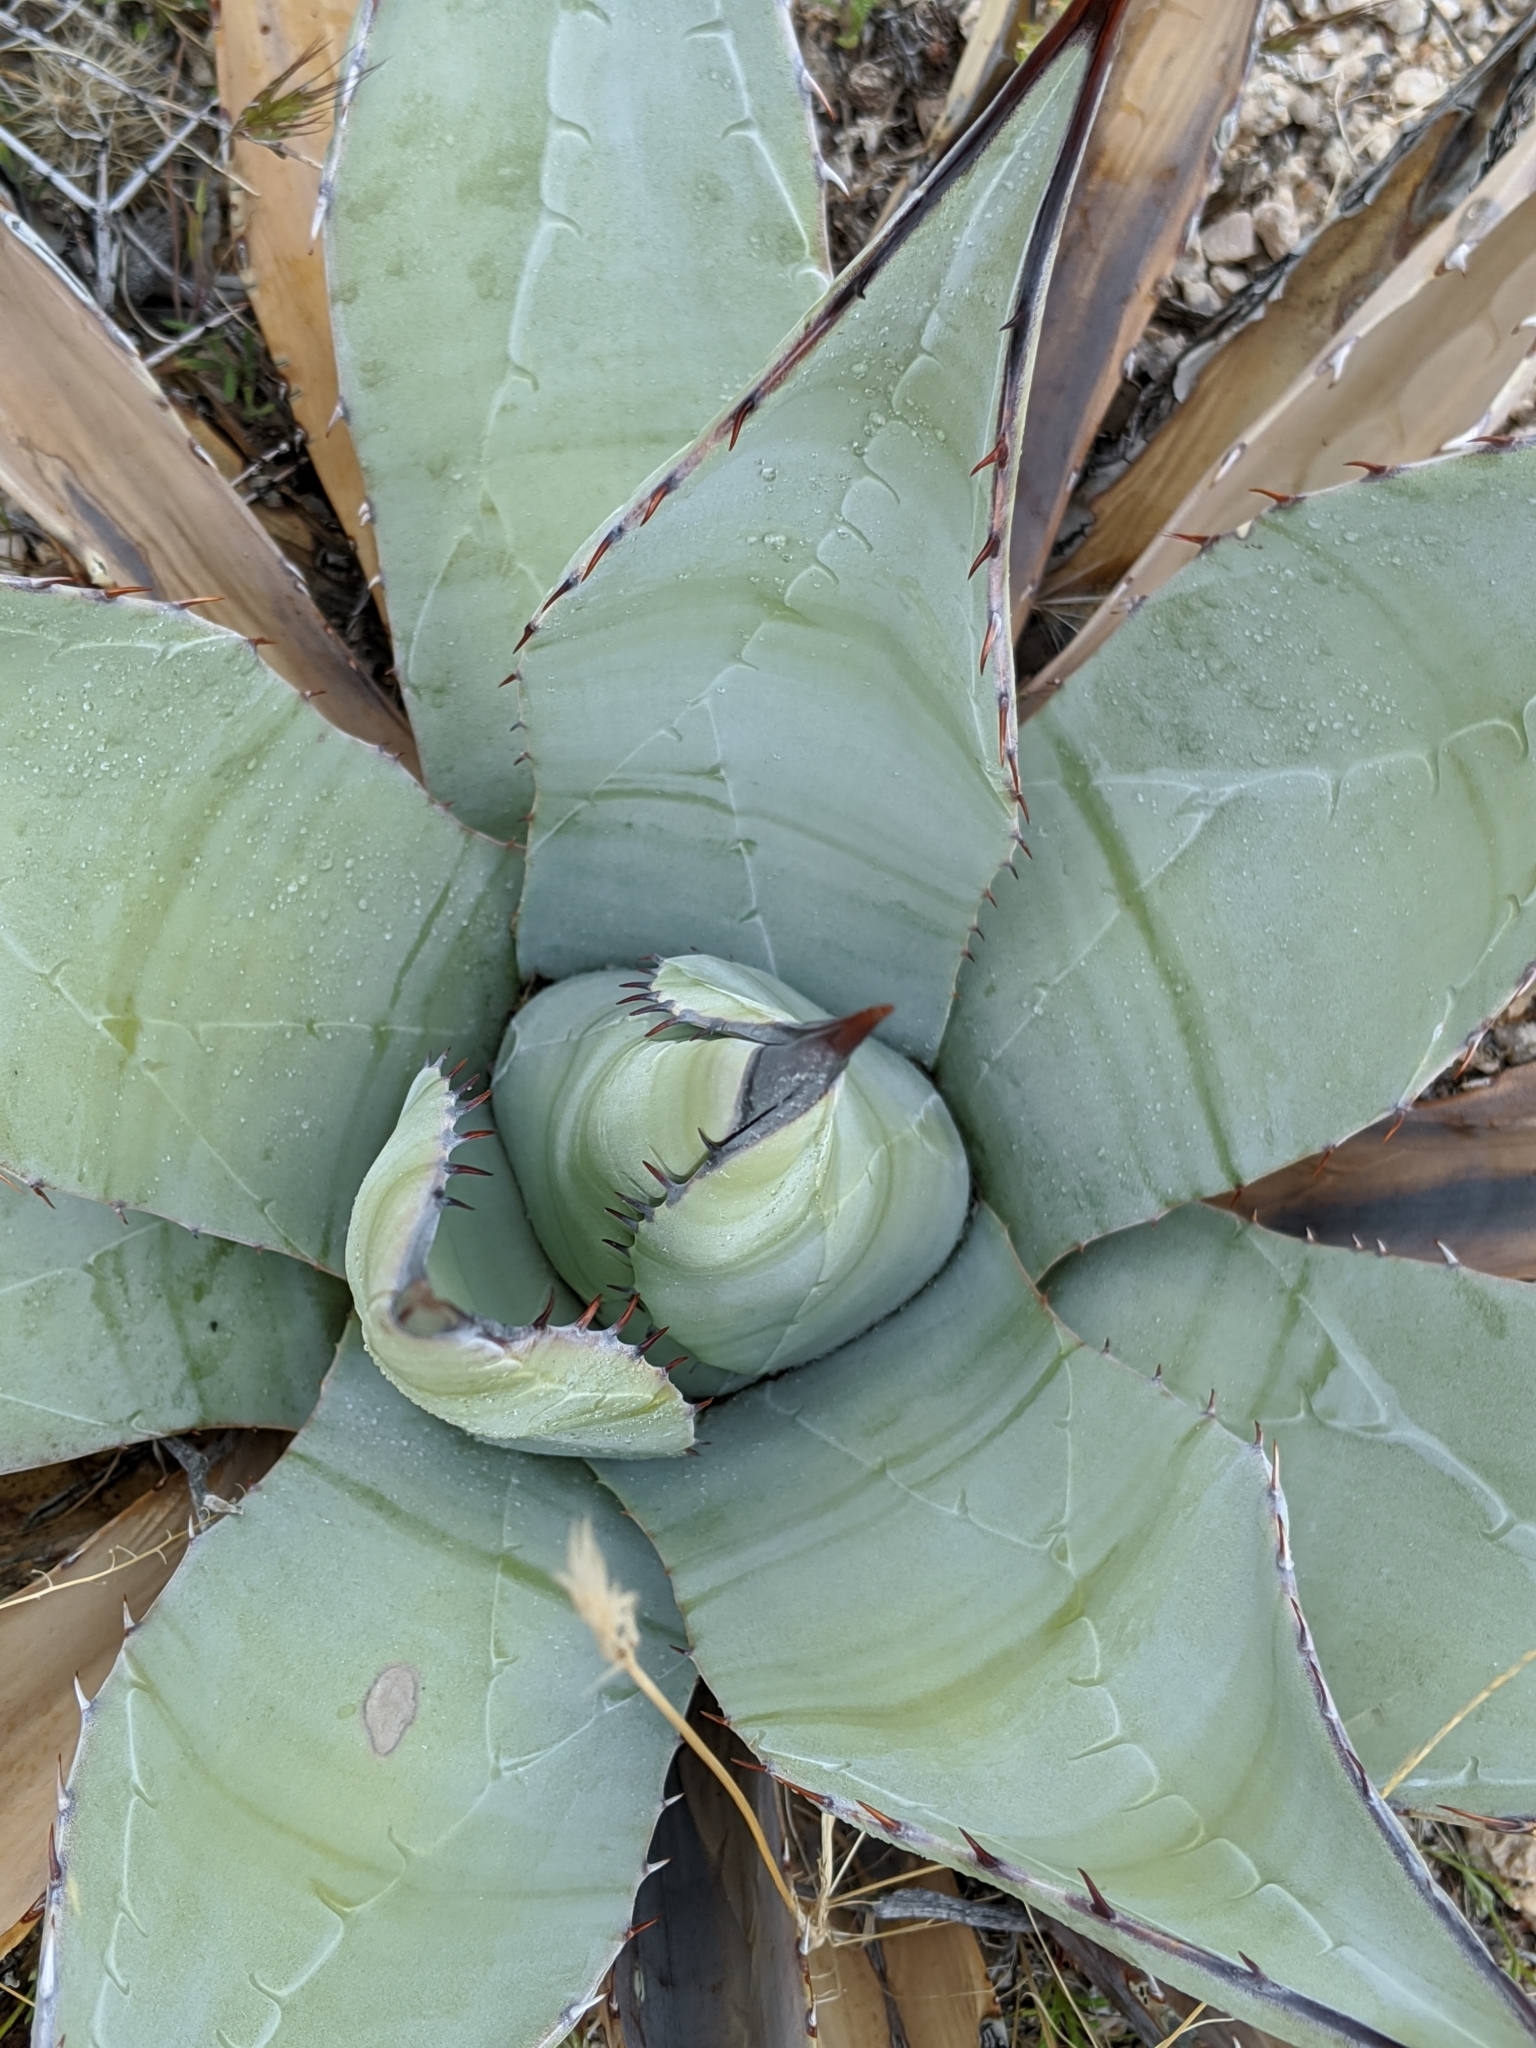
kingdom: Plantae
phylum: Tracheophyta
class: Liliopsida
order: Asparagales
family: Asparagaceae
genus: Agave
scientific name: Agave simplex
